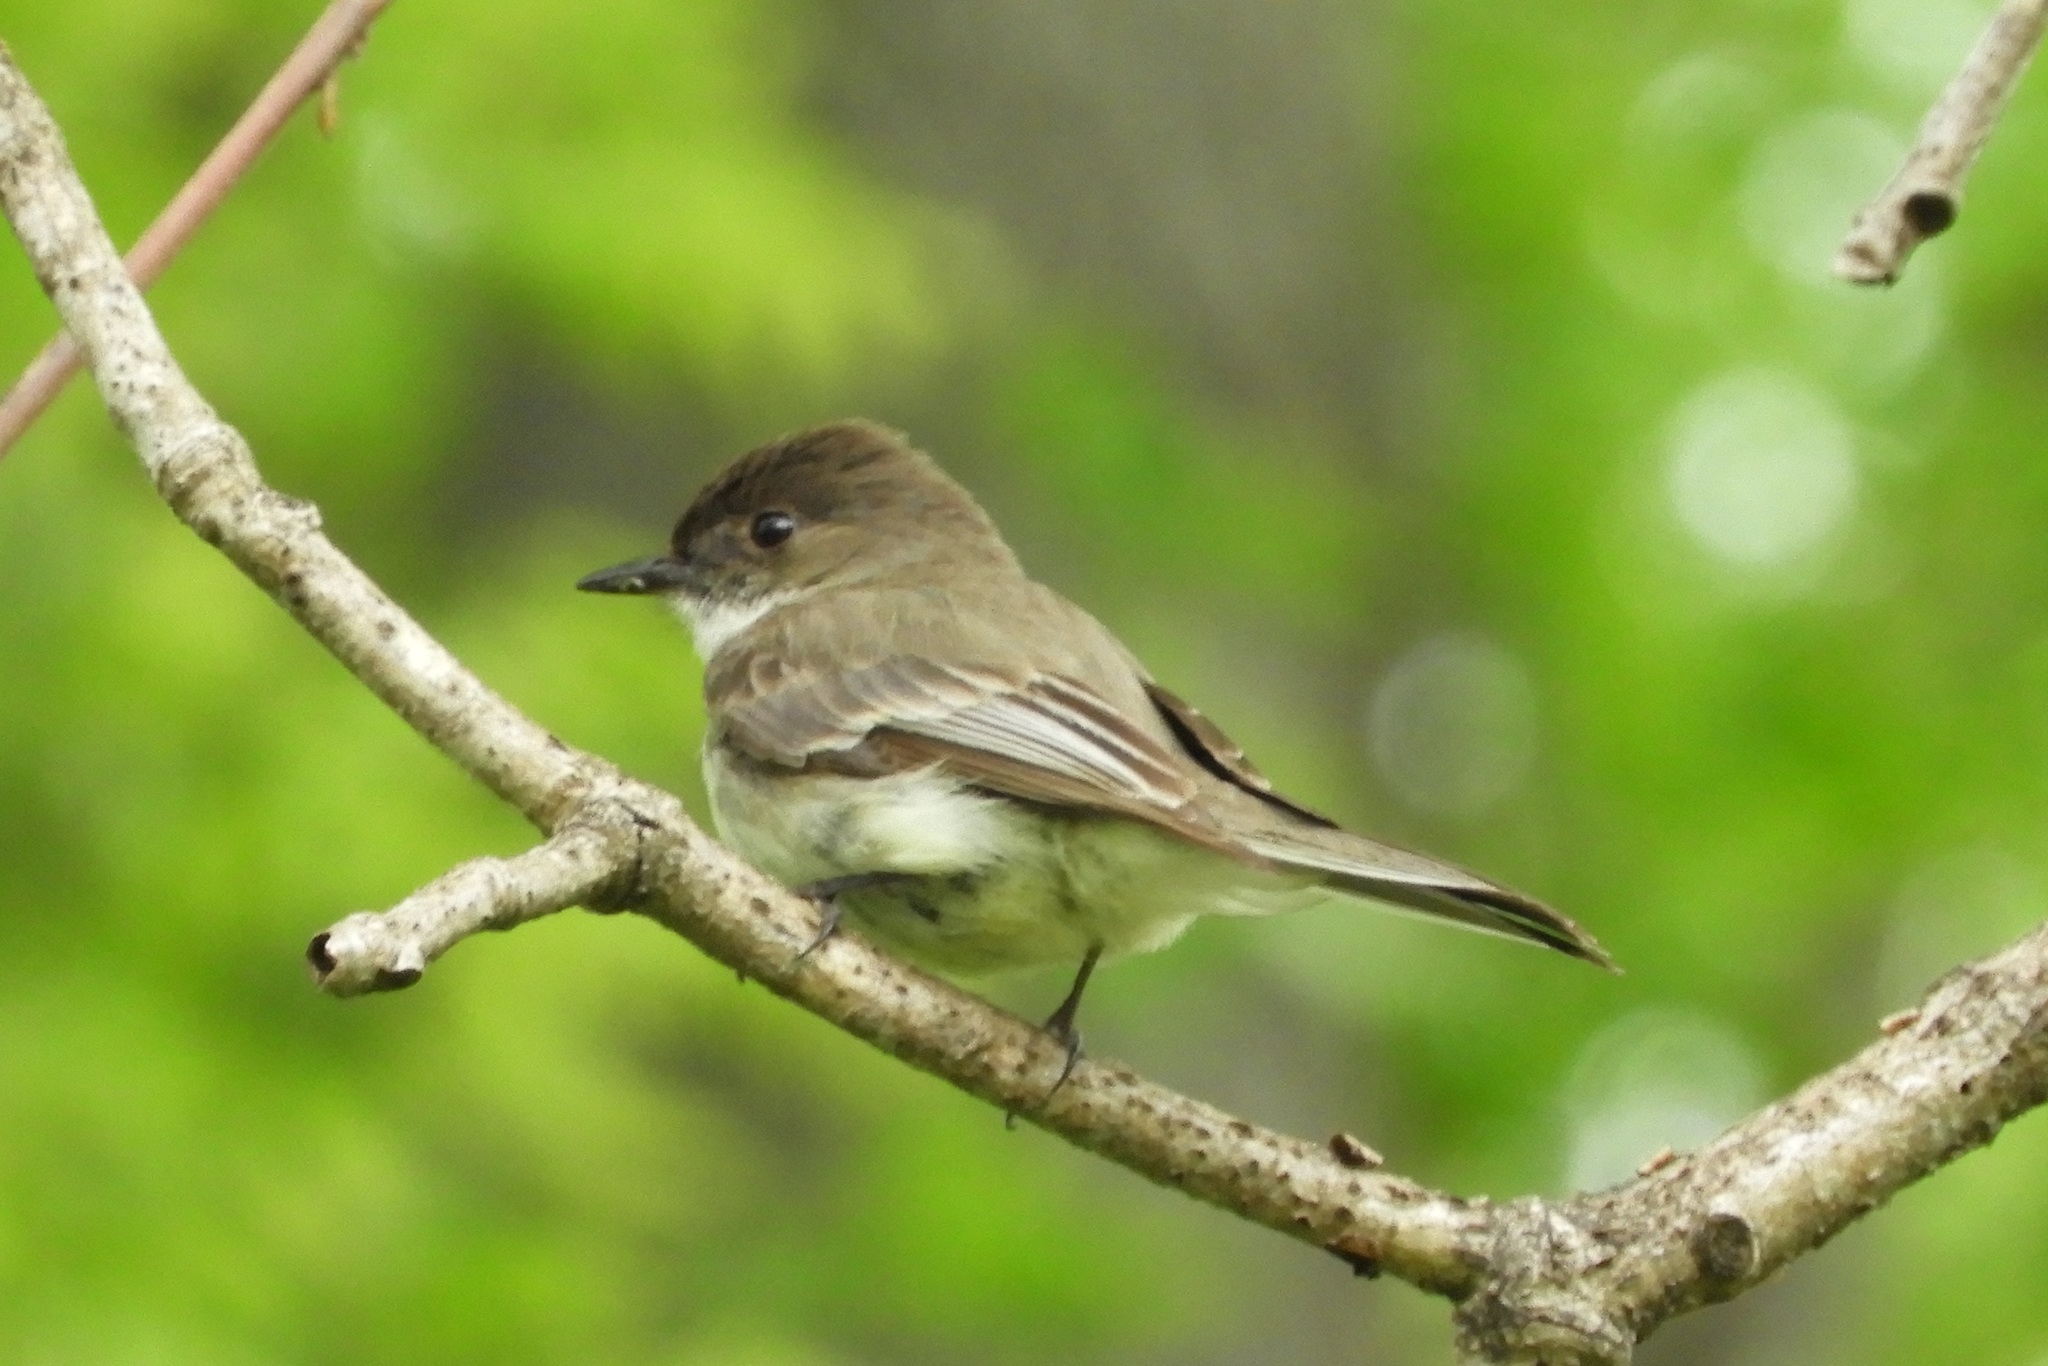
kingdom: Animalia
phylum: Chordata
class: Aves
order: Passeriformes
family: Tyrannidae
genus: Sayornis
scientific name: Sayornis phoebe
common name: Eastern phoebe
